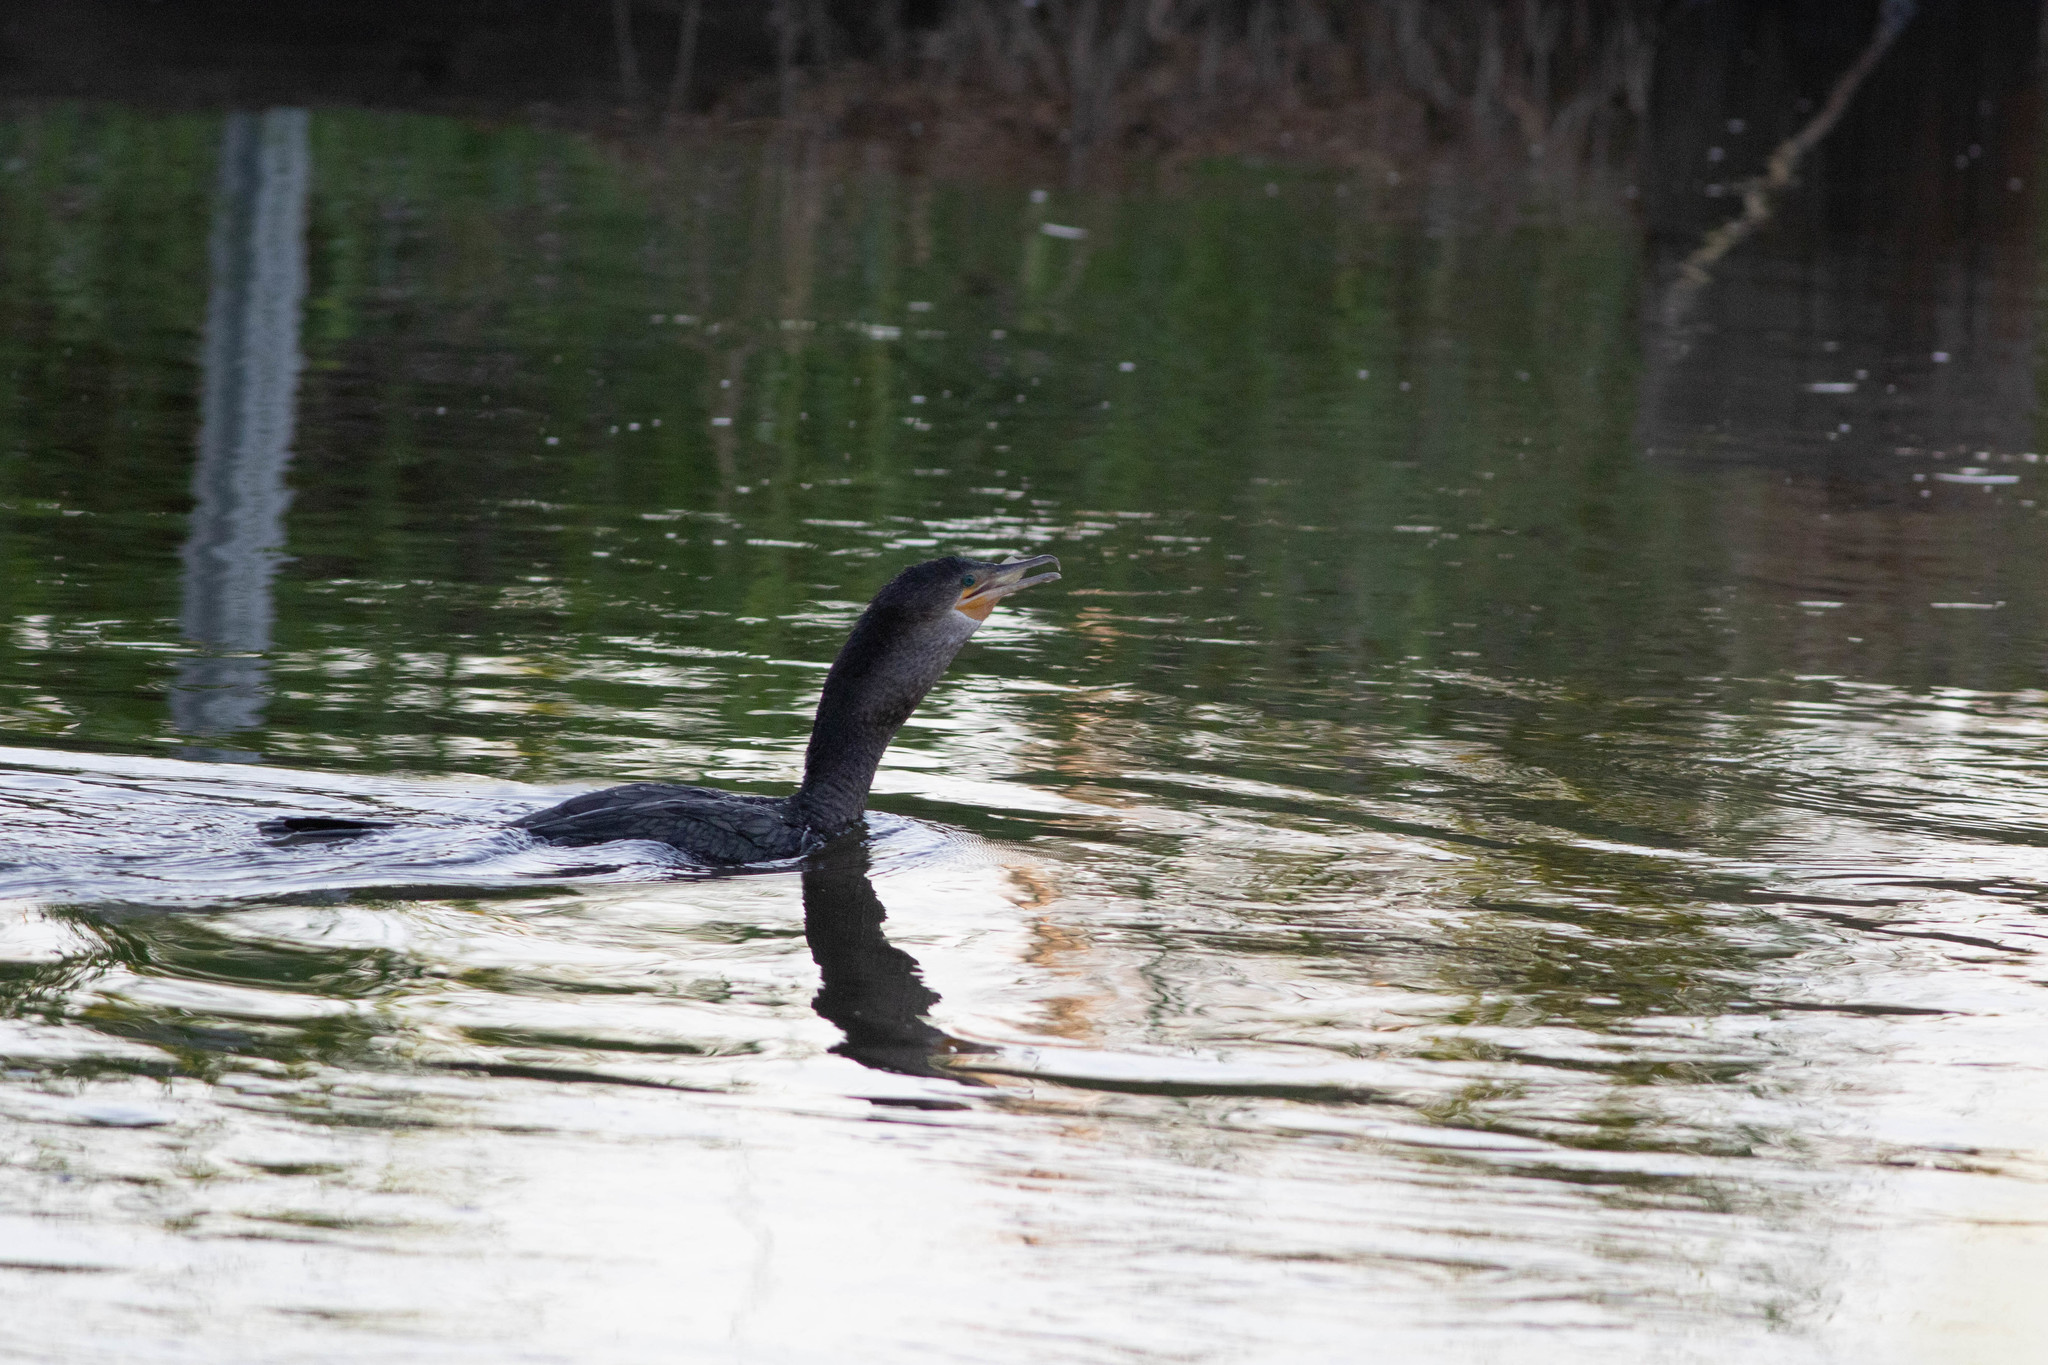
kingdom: Animalia
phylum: Chordata
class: Aves
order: Suliformes
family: Phalacrocoracidae
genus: Phalacrocorax
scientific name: Phalacrocorax brasilianus
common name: Neotropic cormorant
